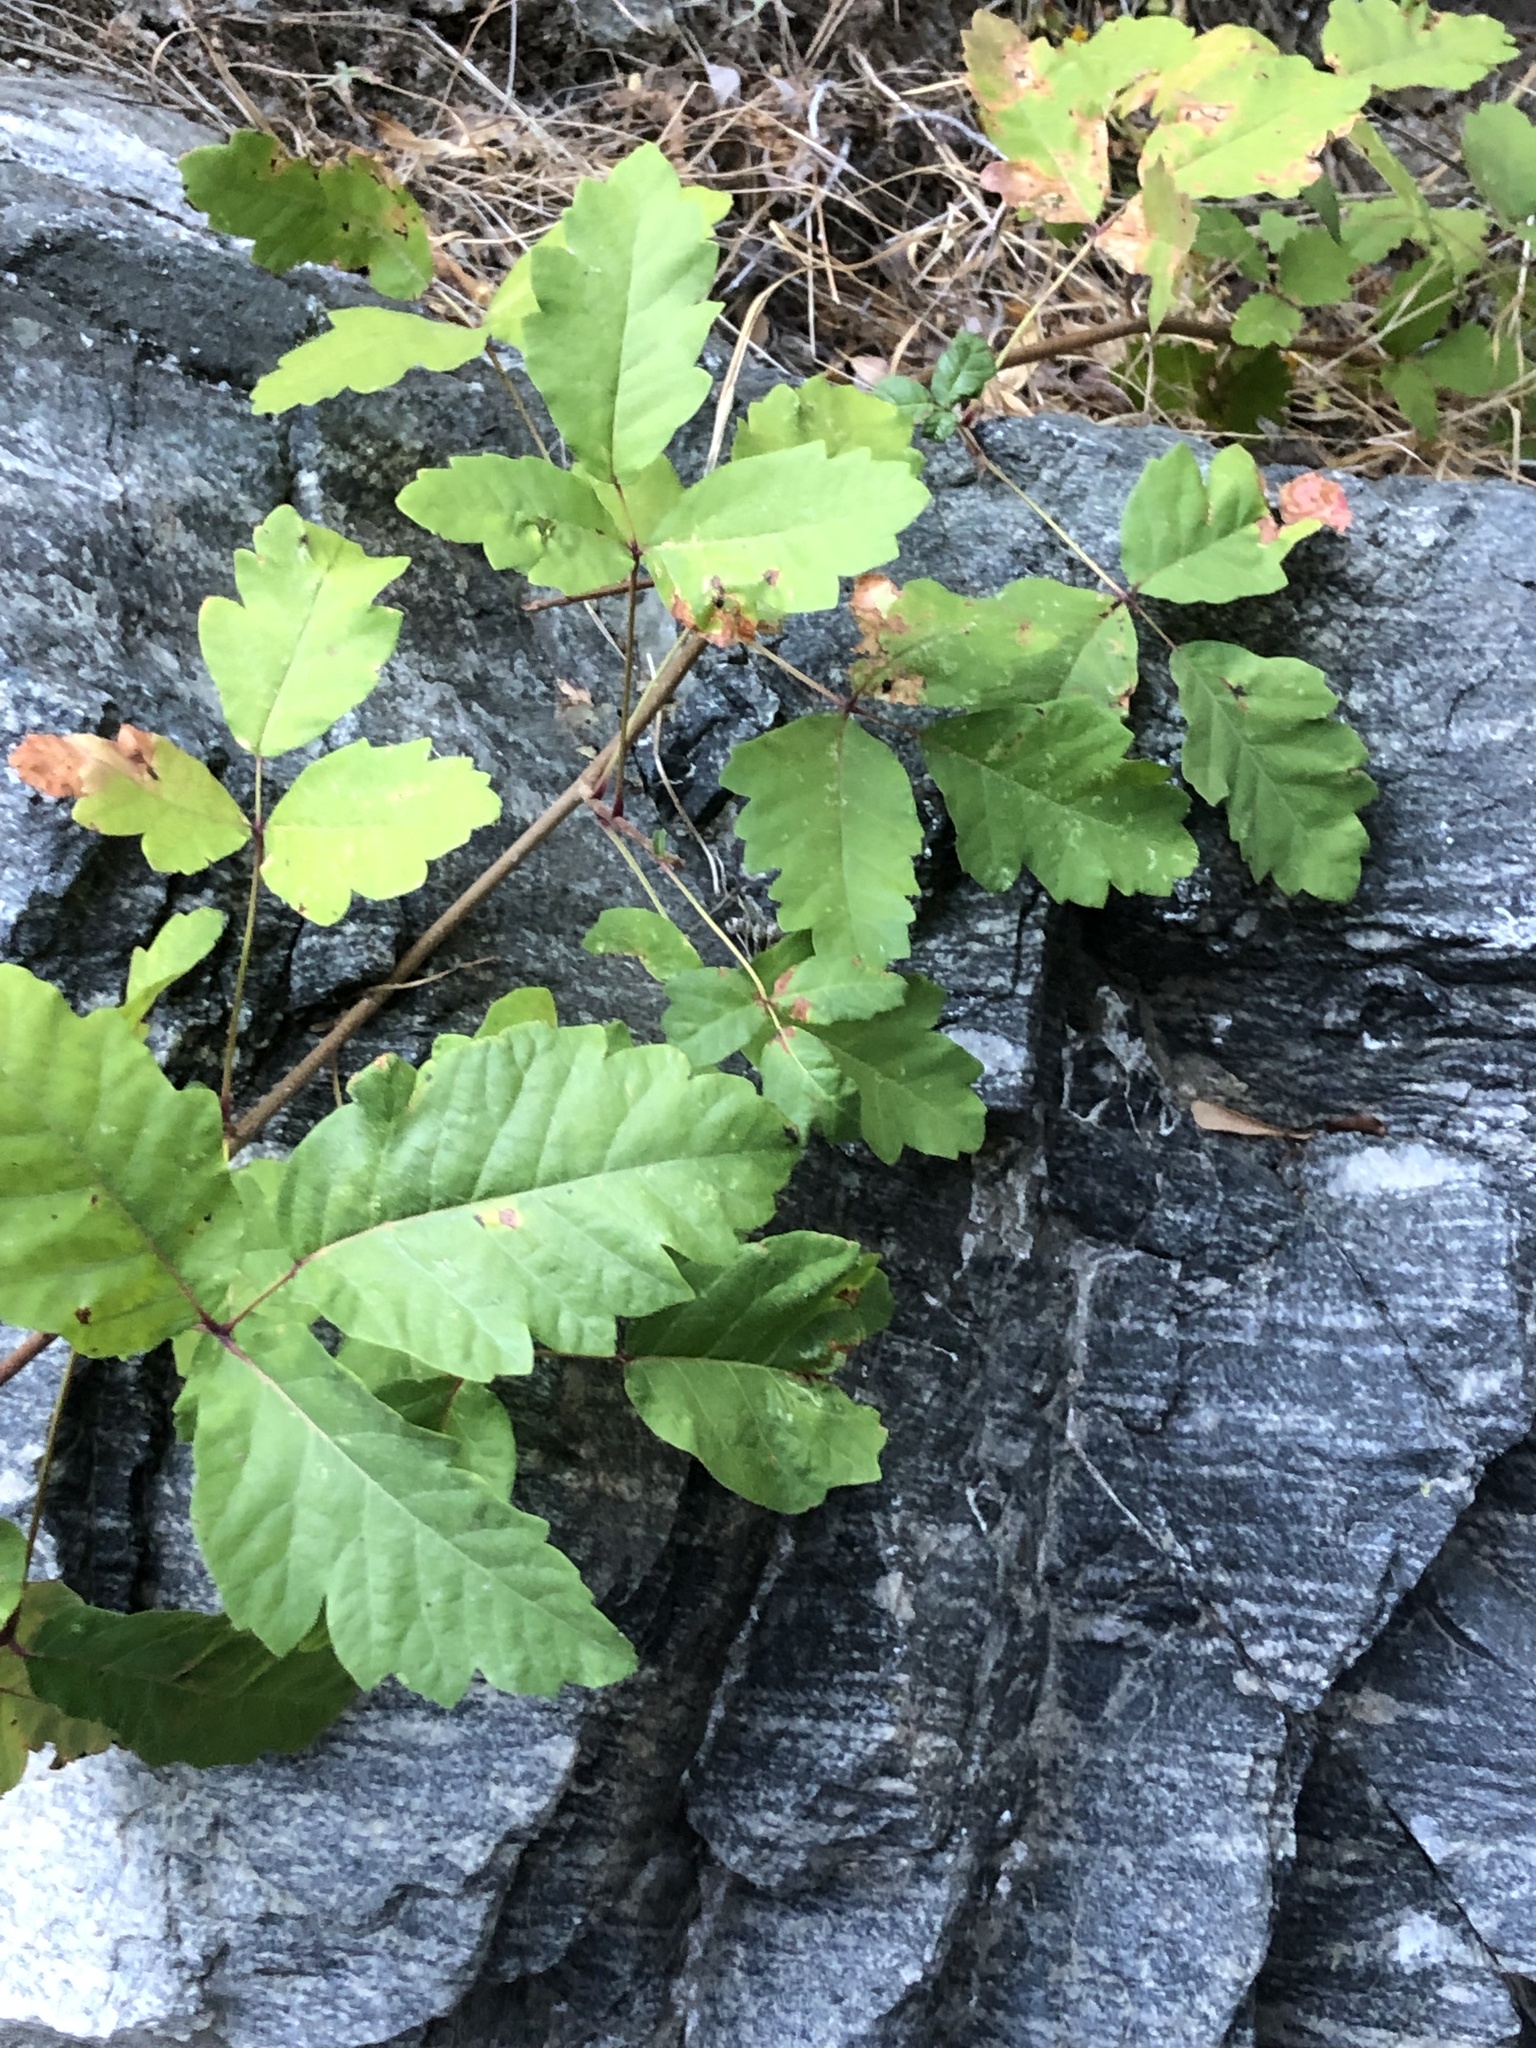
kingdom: Plantae
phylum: Tracheophyta
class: Magnoliopsida
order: Sapindales
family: Anacardiaceae
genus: Toxicodendron
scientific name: Toxicodendron diversilobum
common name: Pacific poison-oak
